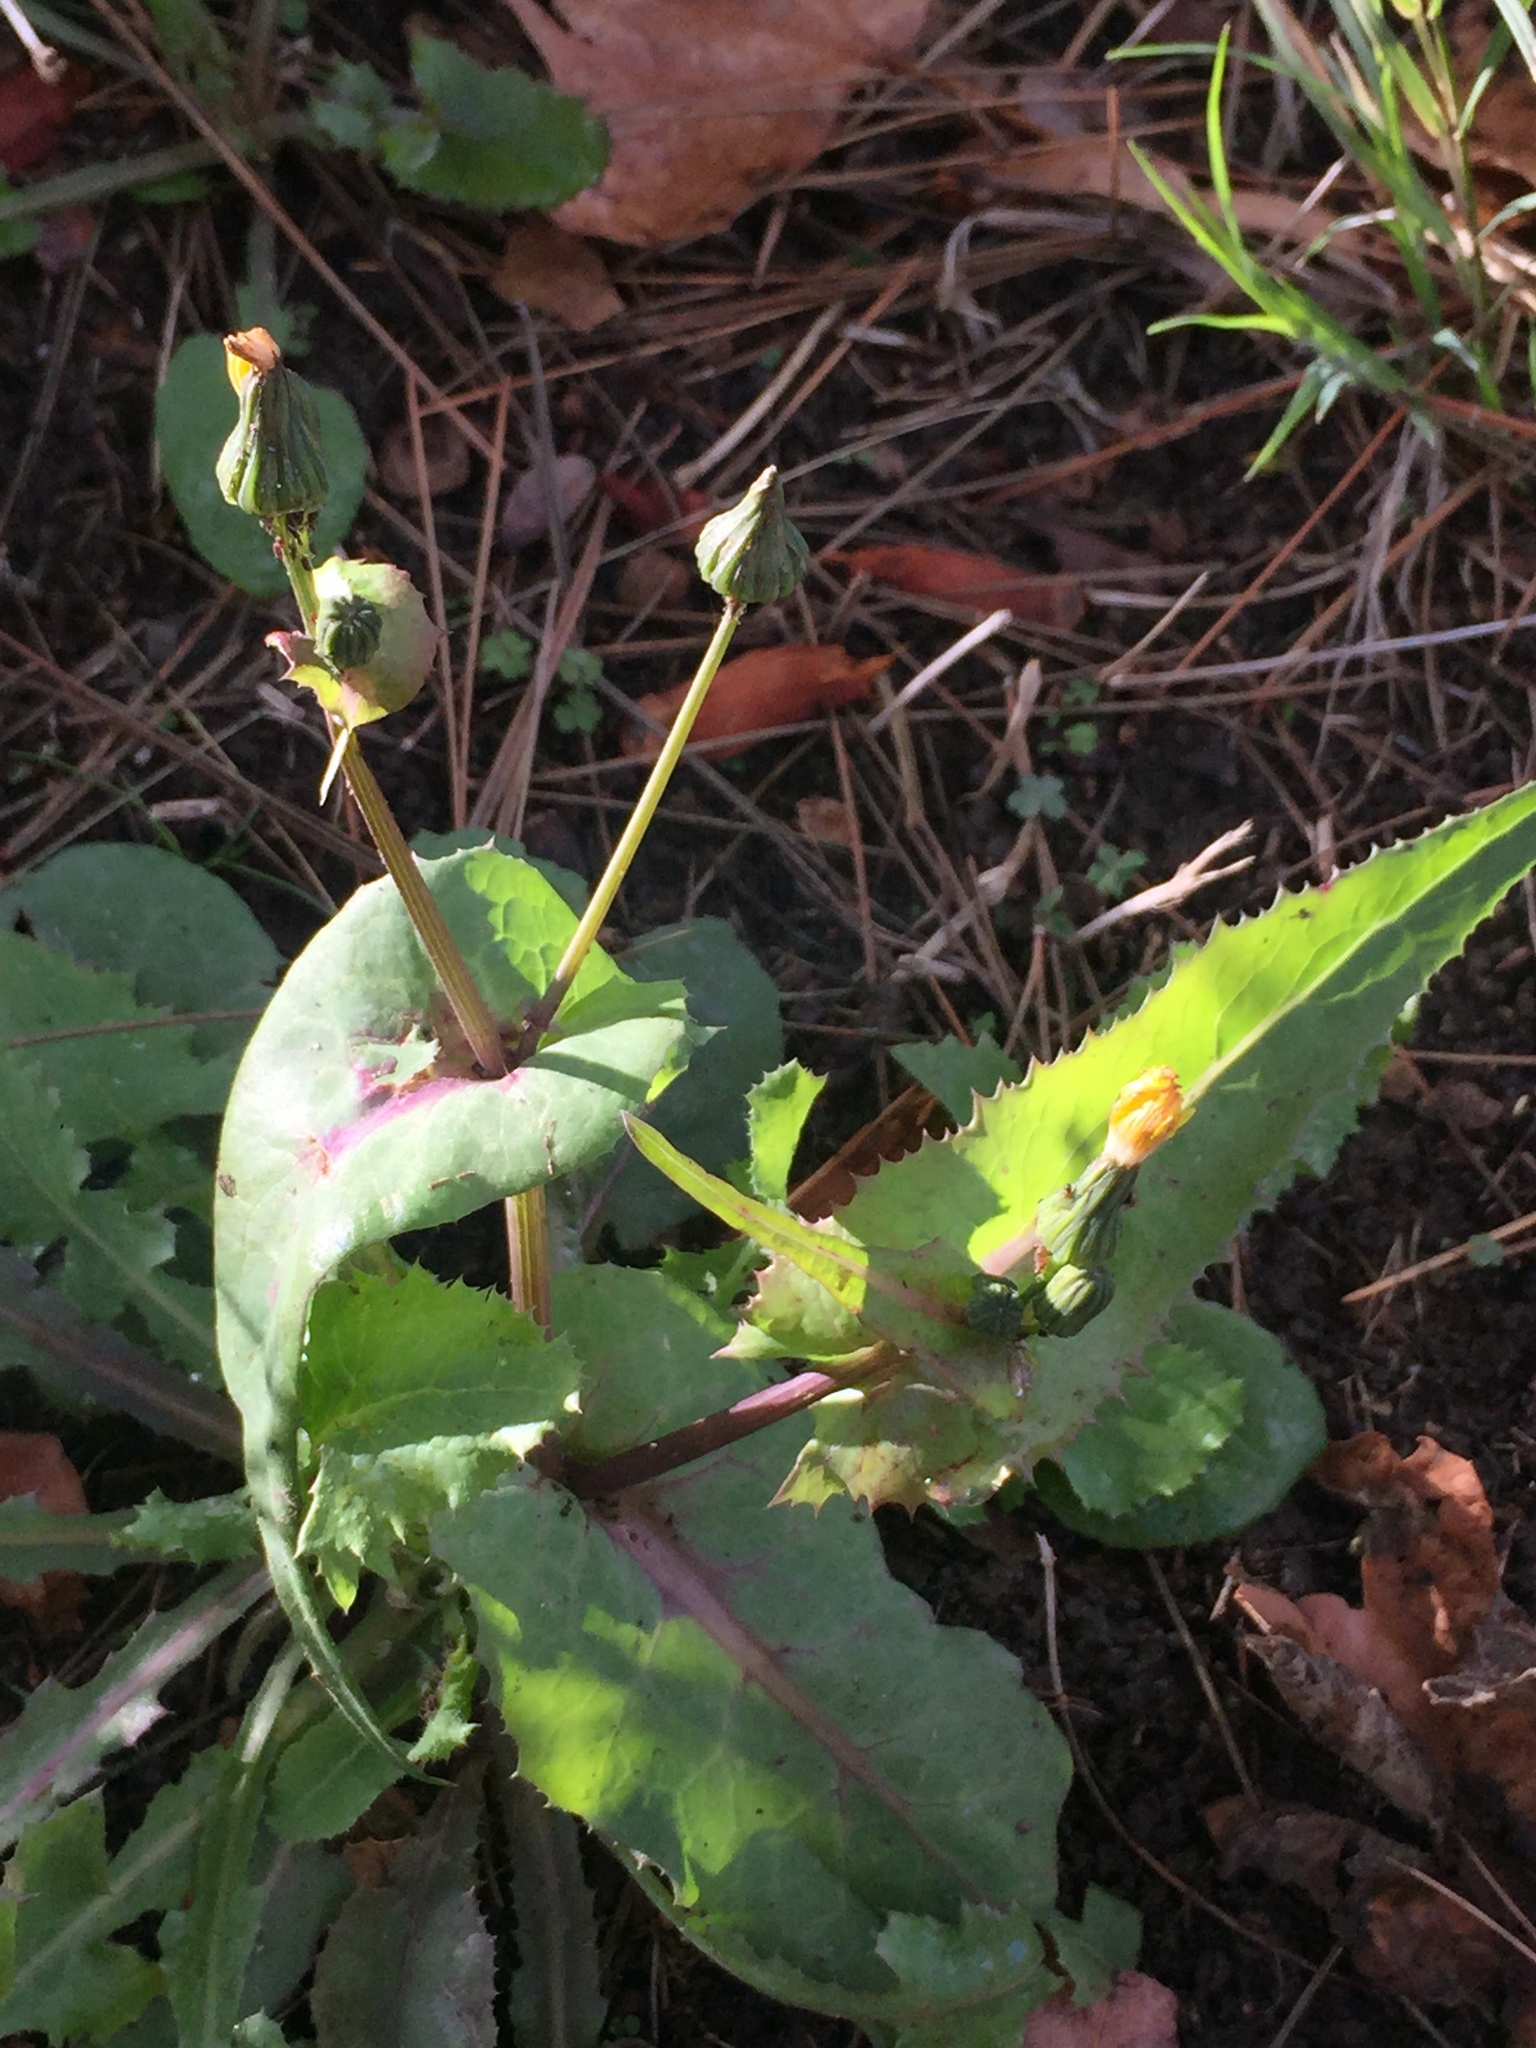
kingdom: Plantae
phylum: Tracheophyta
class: Magnoliopsida
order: Asterales
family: Asteraceae
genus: Sonchus
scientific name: Sonchus oleraceus
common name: Common sowthistle
